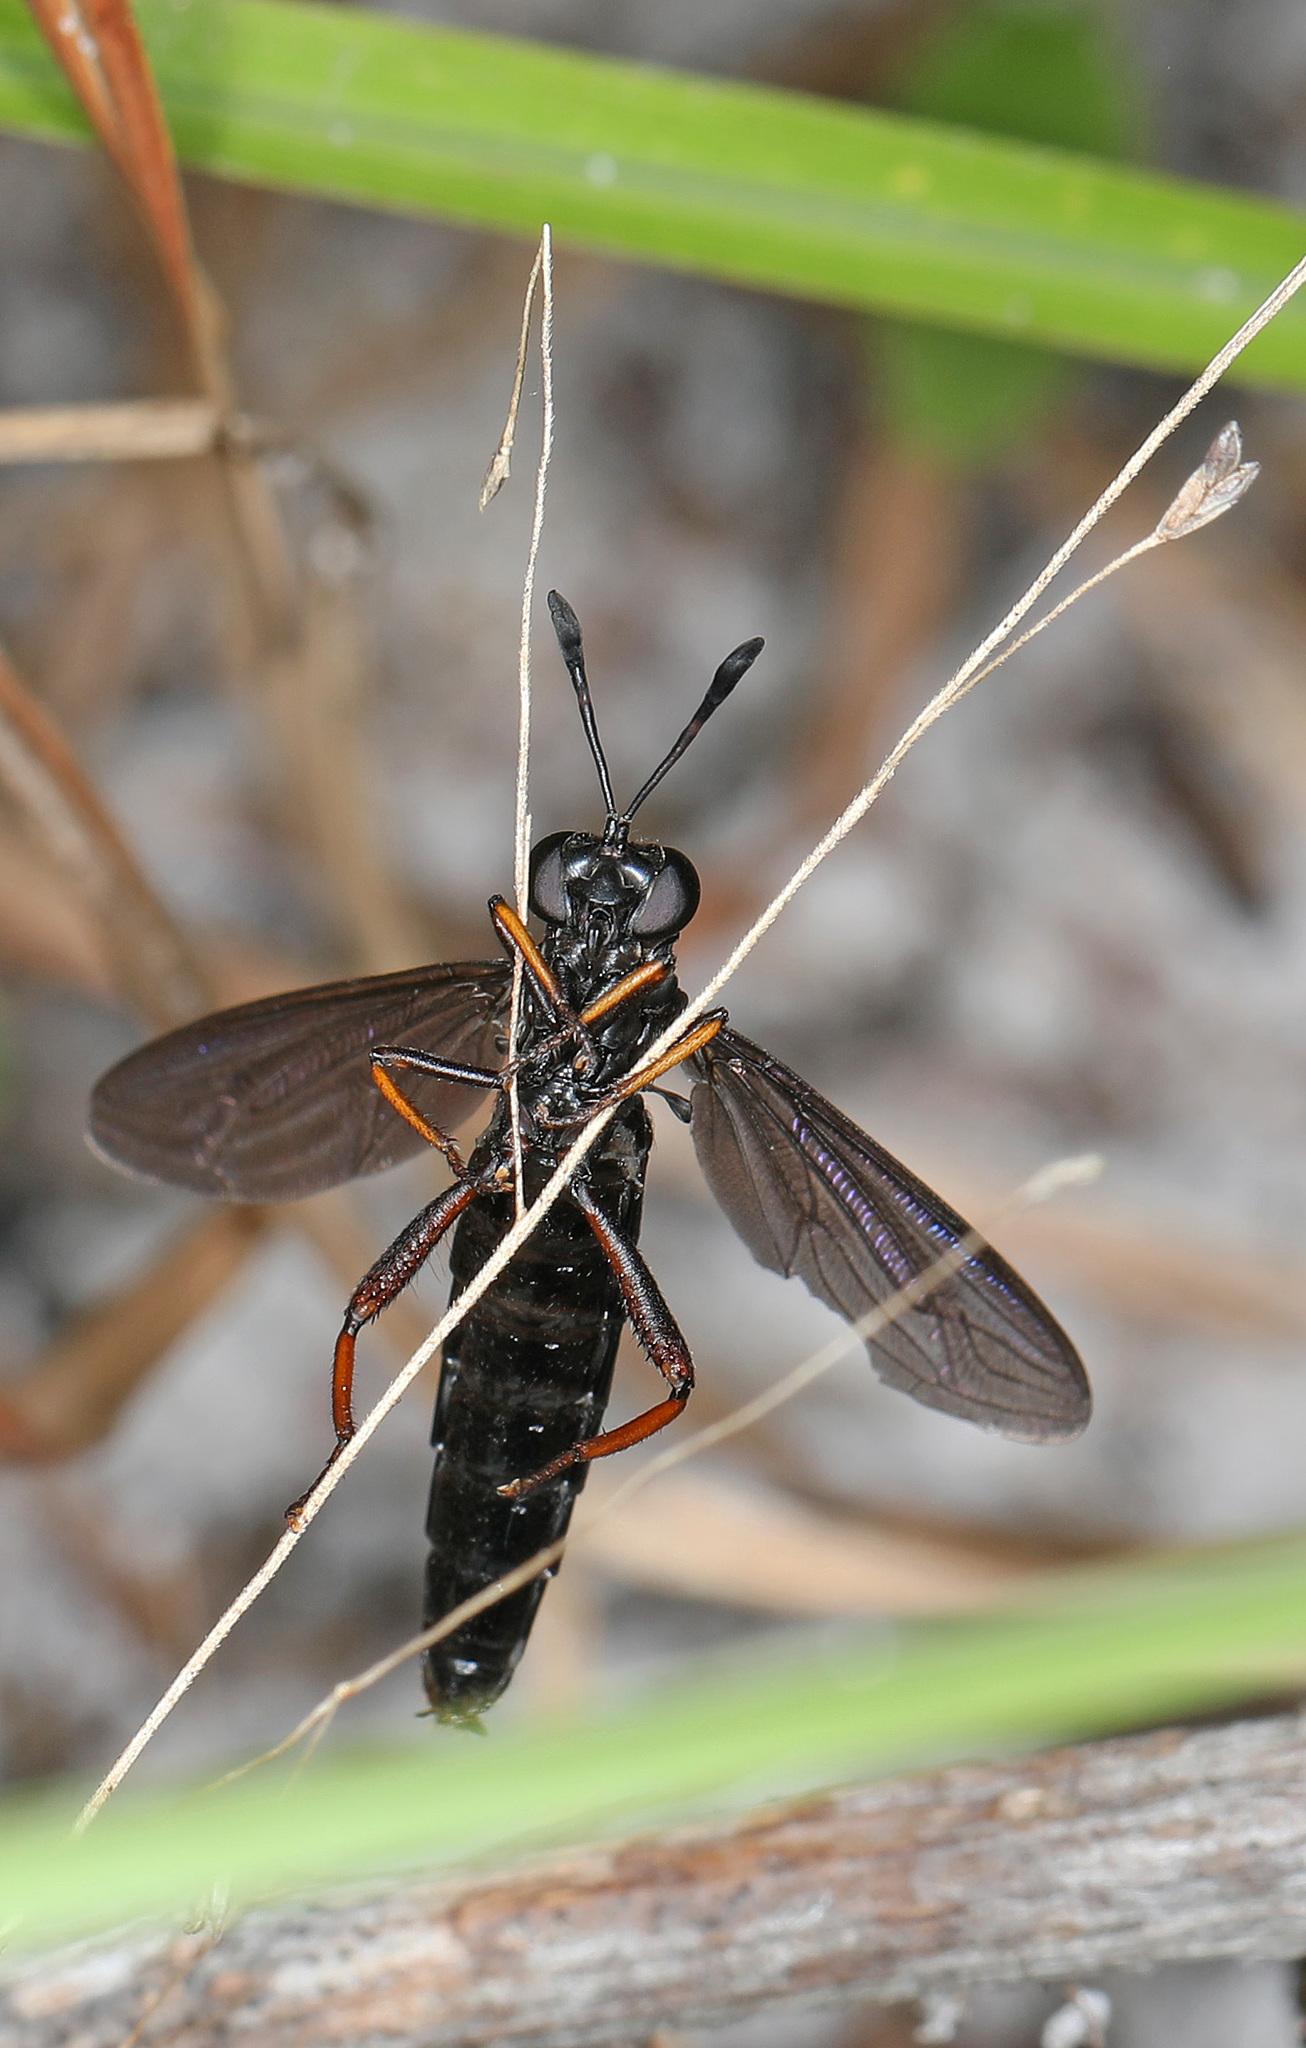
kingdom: Animalia
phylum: Arthropoda
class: Insecta
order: Diptera
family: Mydidae
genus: Phyllomydas
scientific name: Phyllomydas quercus
